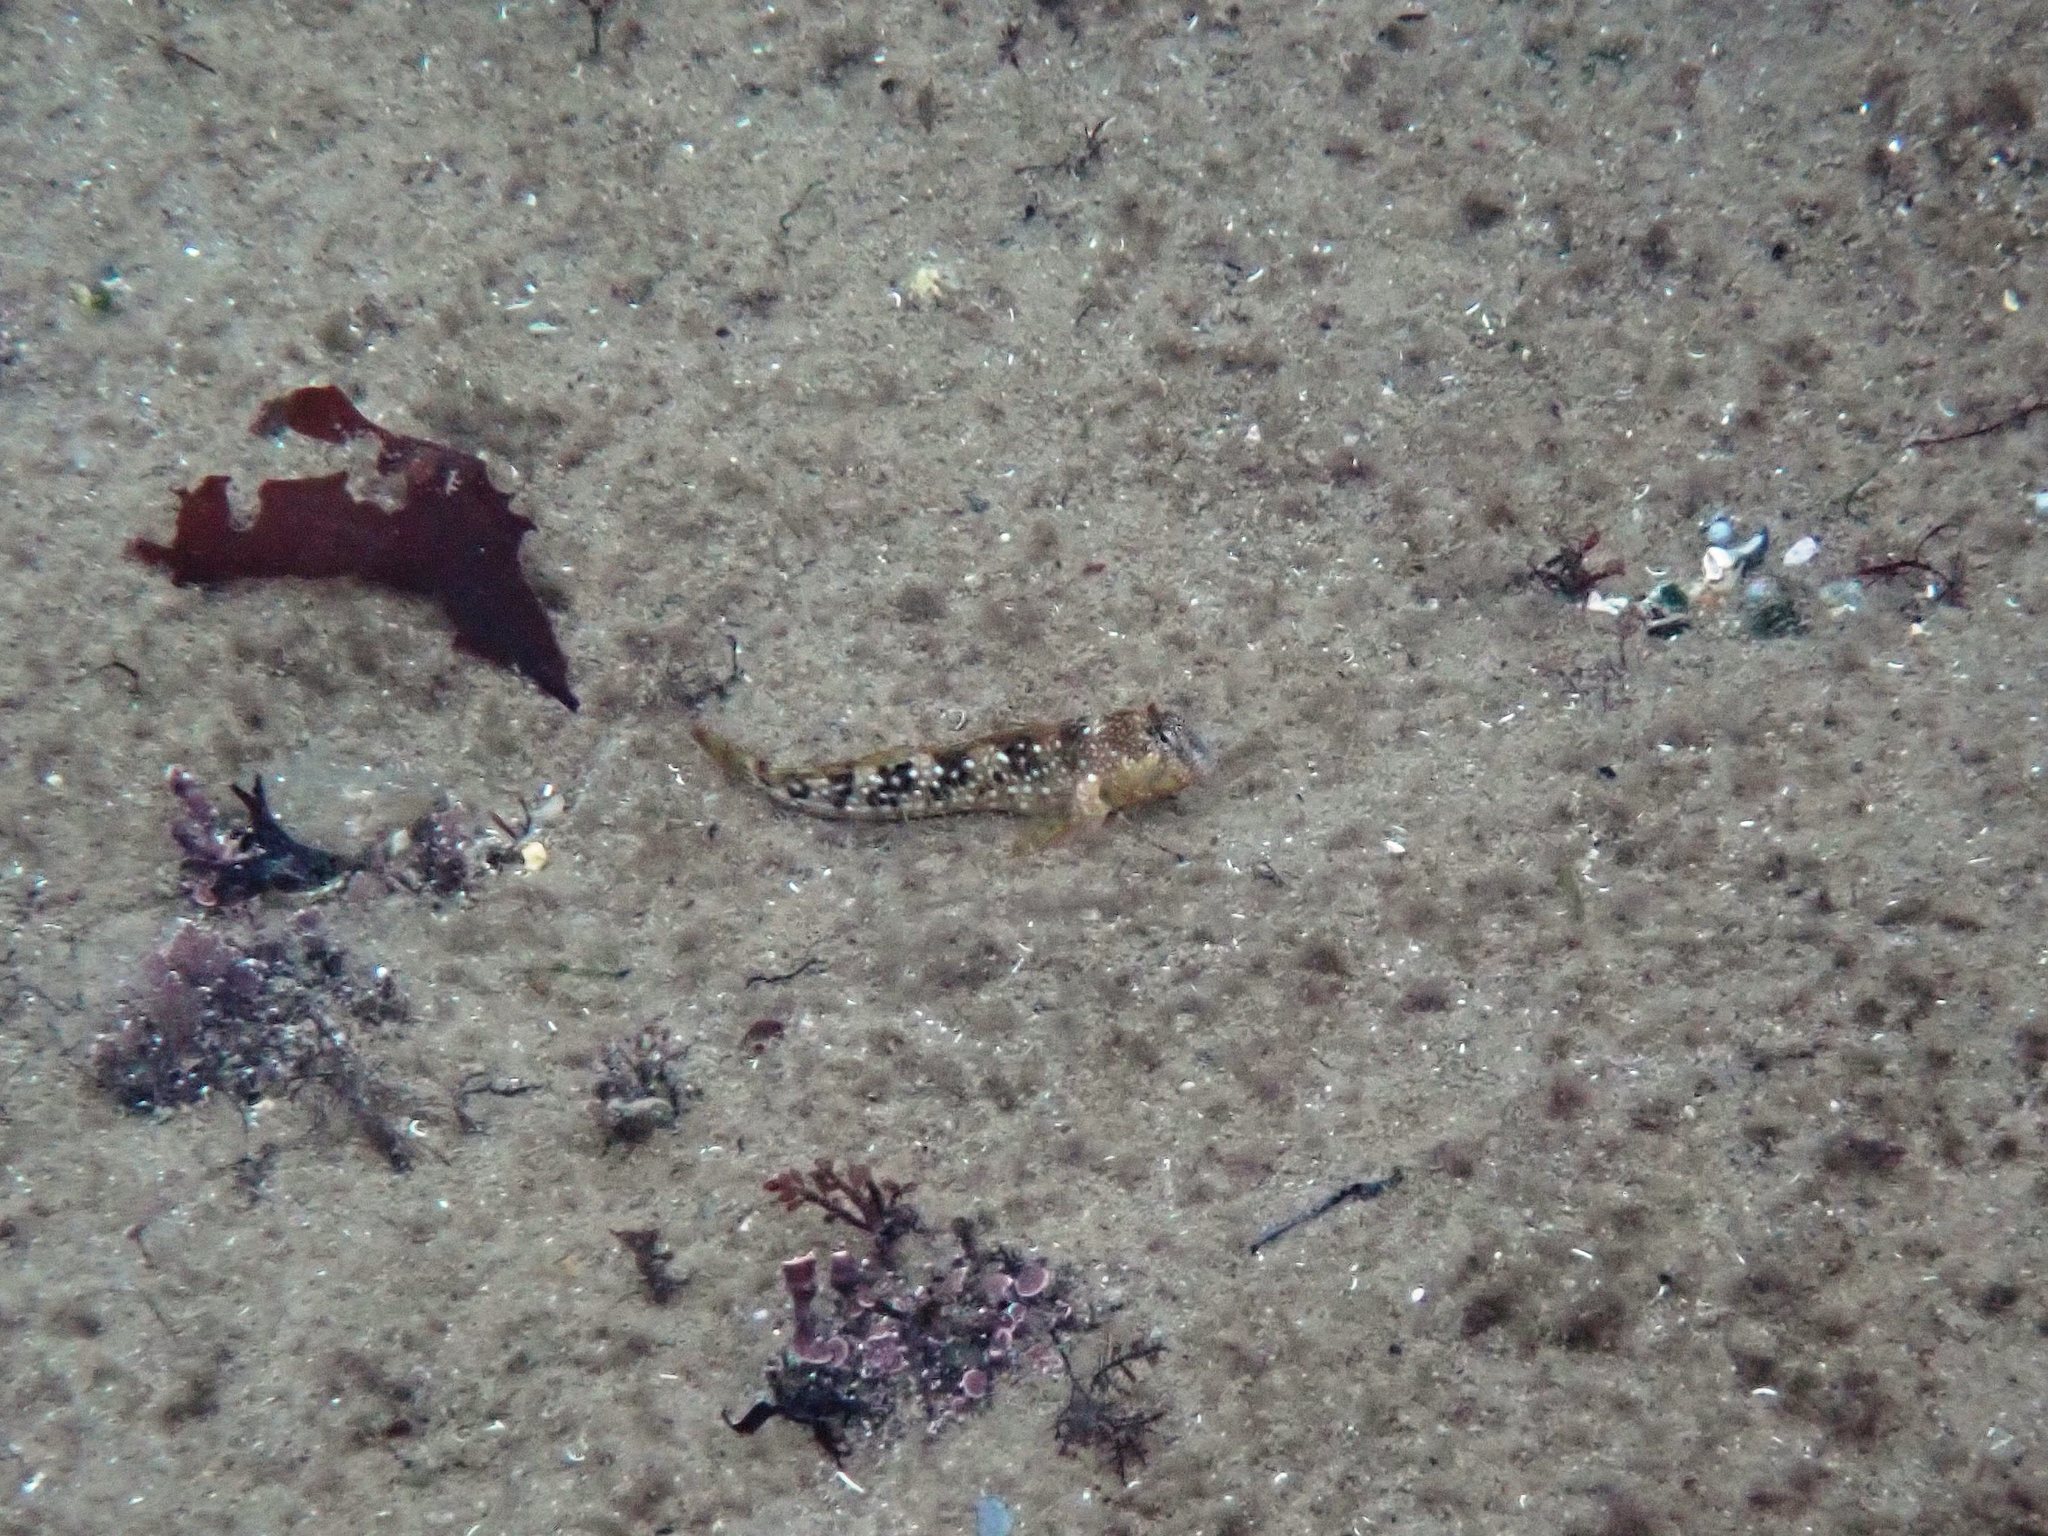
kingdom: Animalia
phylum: Chordata
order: Perciformes
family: Blenniidae
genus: Coryphoblennius
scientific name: Coryphoblennius galerita
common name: Montagu's blenny
